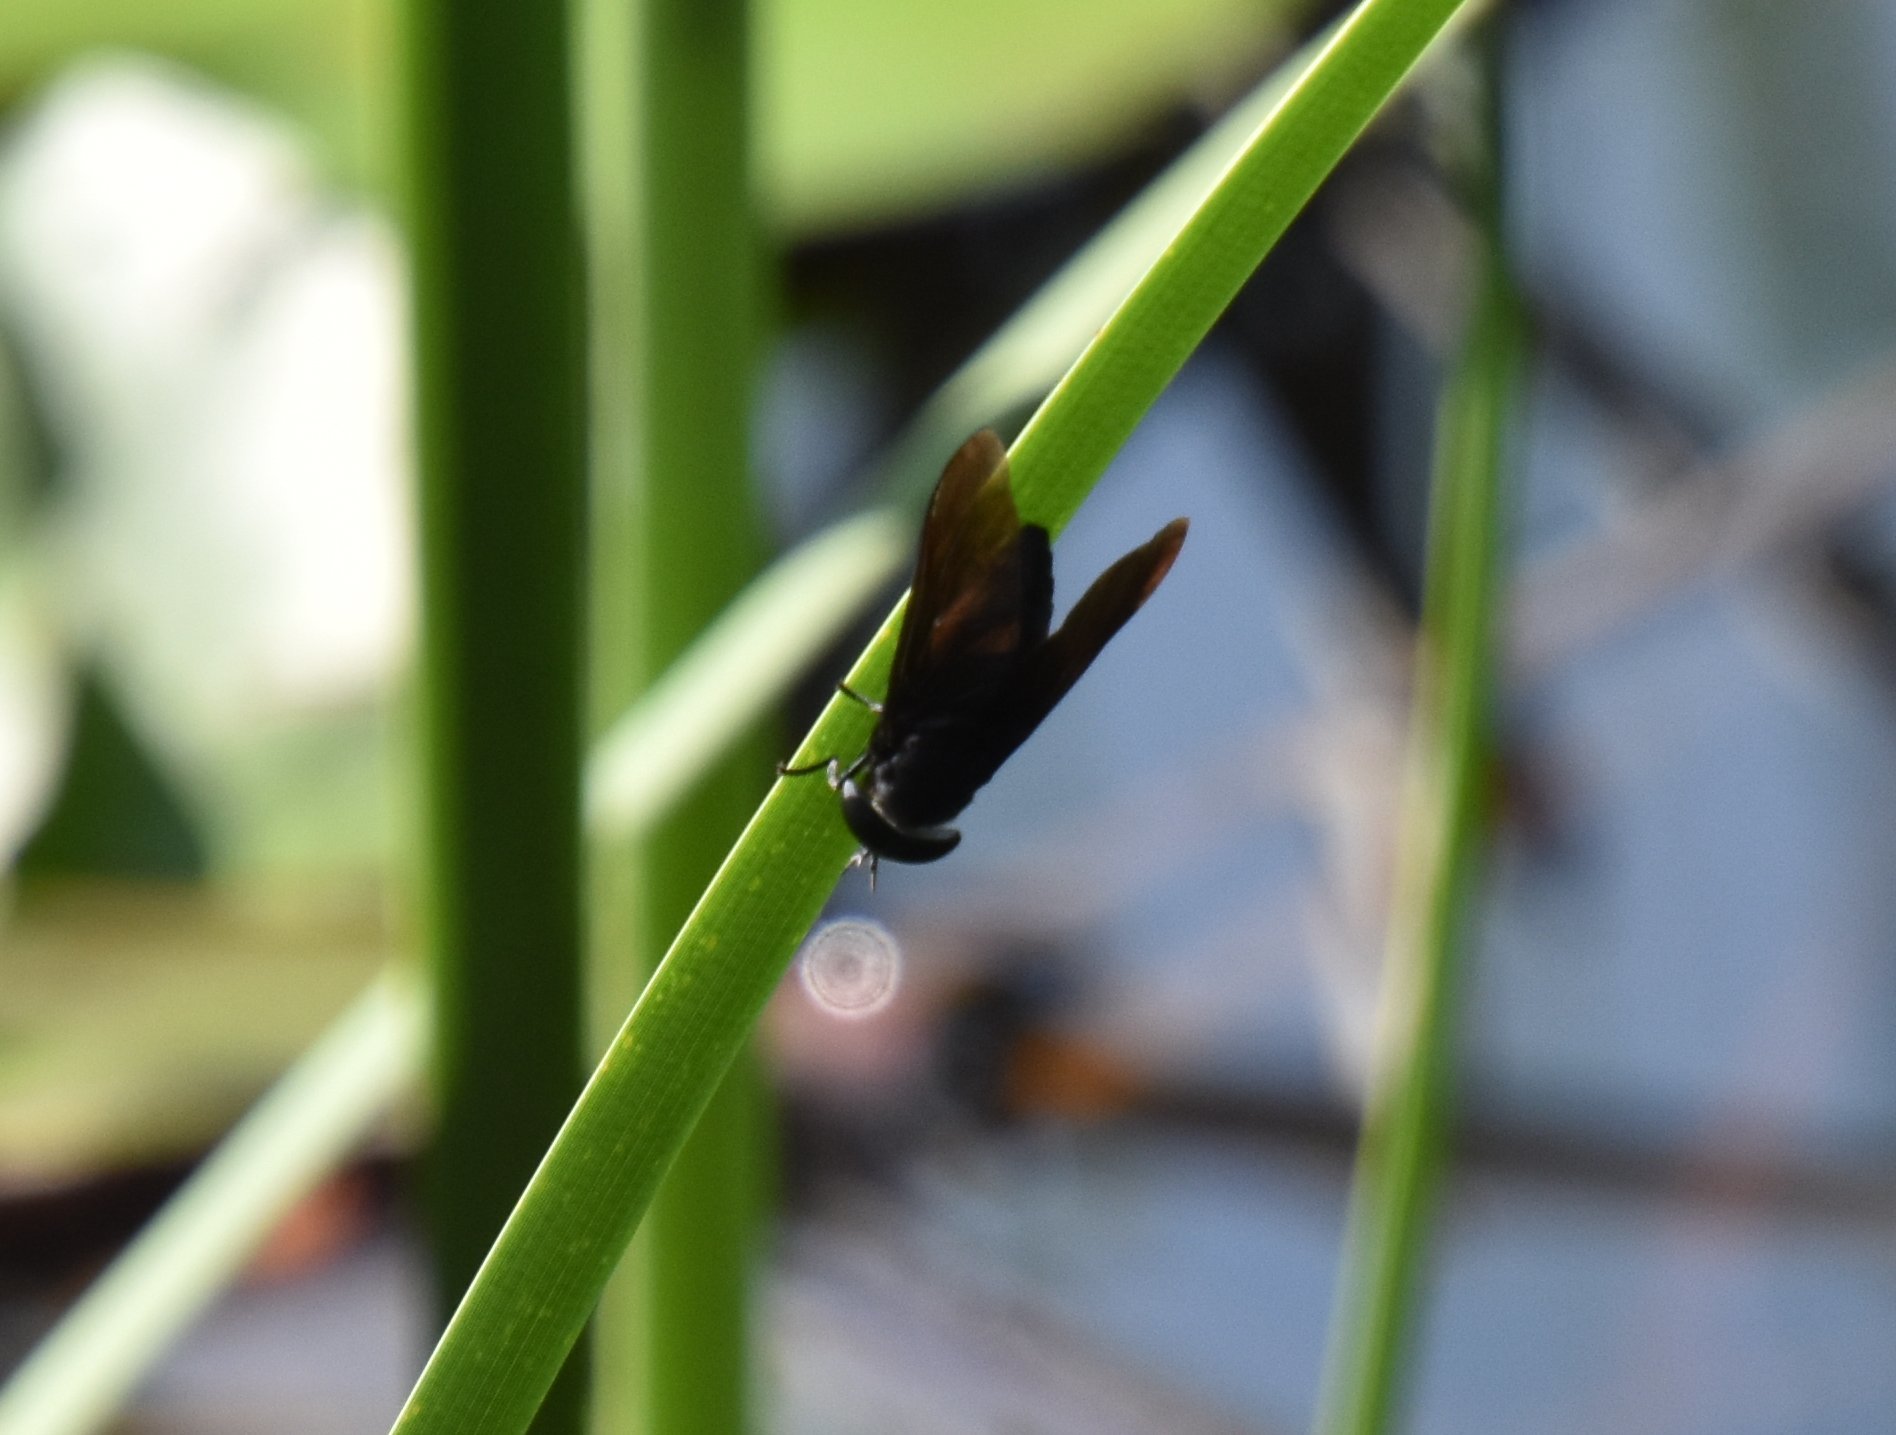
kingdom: Animalia
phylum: Arthropoda
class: Insecta
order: Diptera
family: Tabanidae
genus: Tabanus
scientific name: Tabanus atratus
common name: Black horse fly
